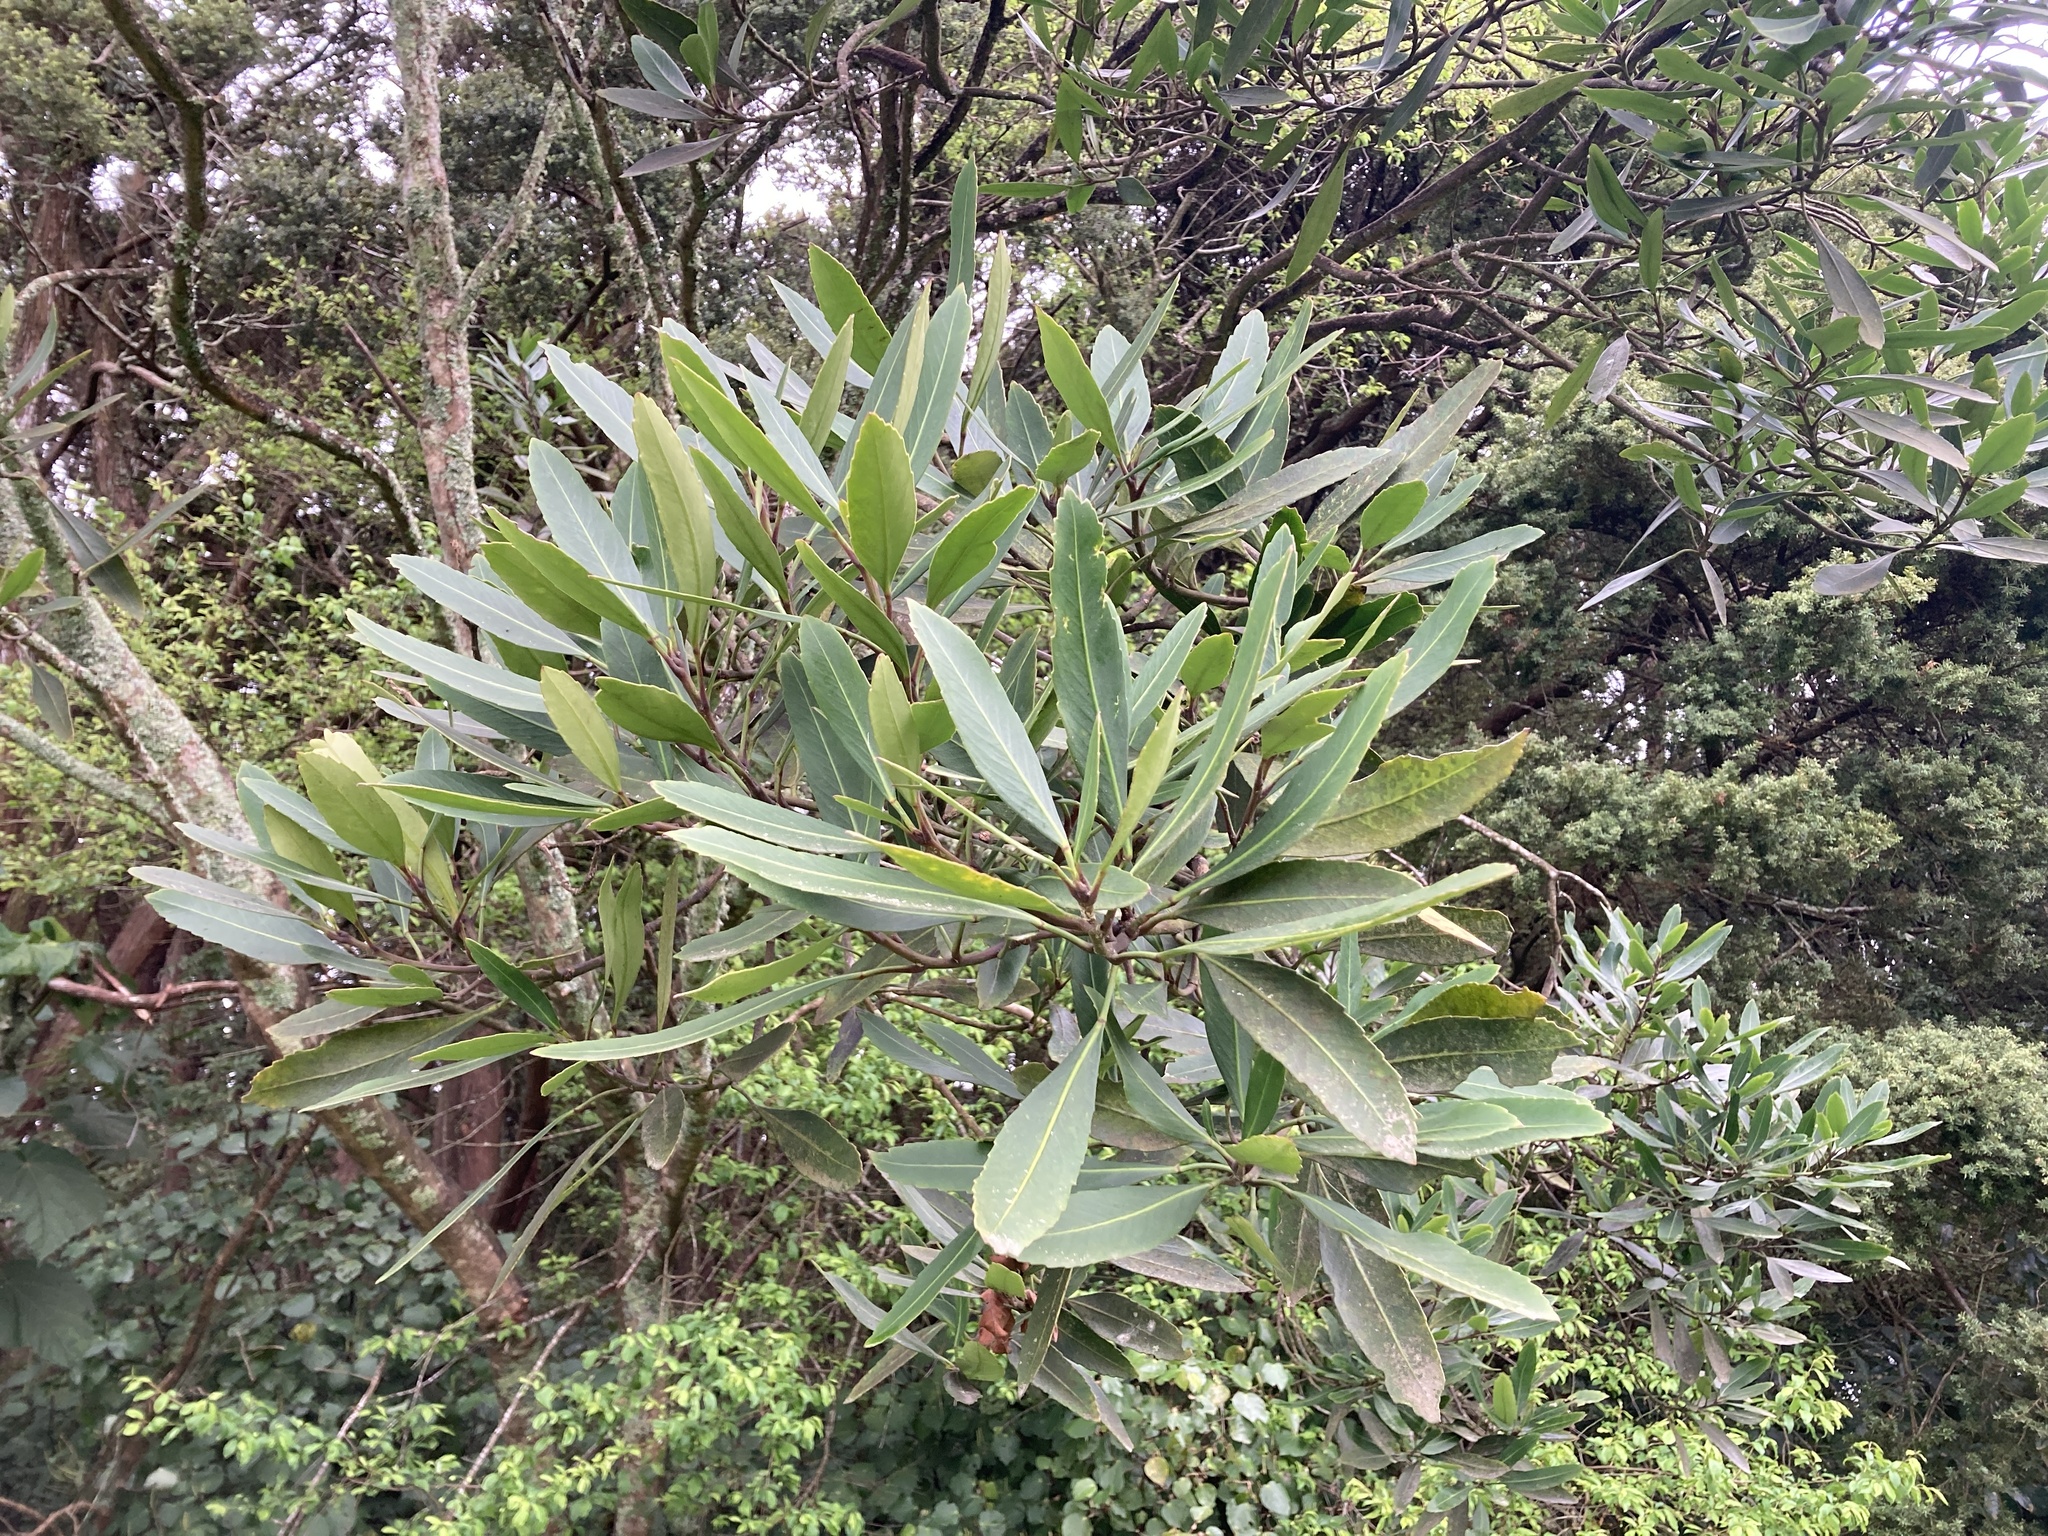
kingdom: Plantae
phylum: Tracheophyta
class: Magnoliopsida
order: Apiales
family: Araliaceae
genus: Pseudopanax
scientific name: Pseudopanax crassifolius
